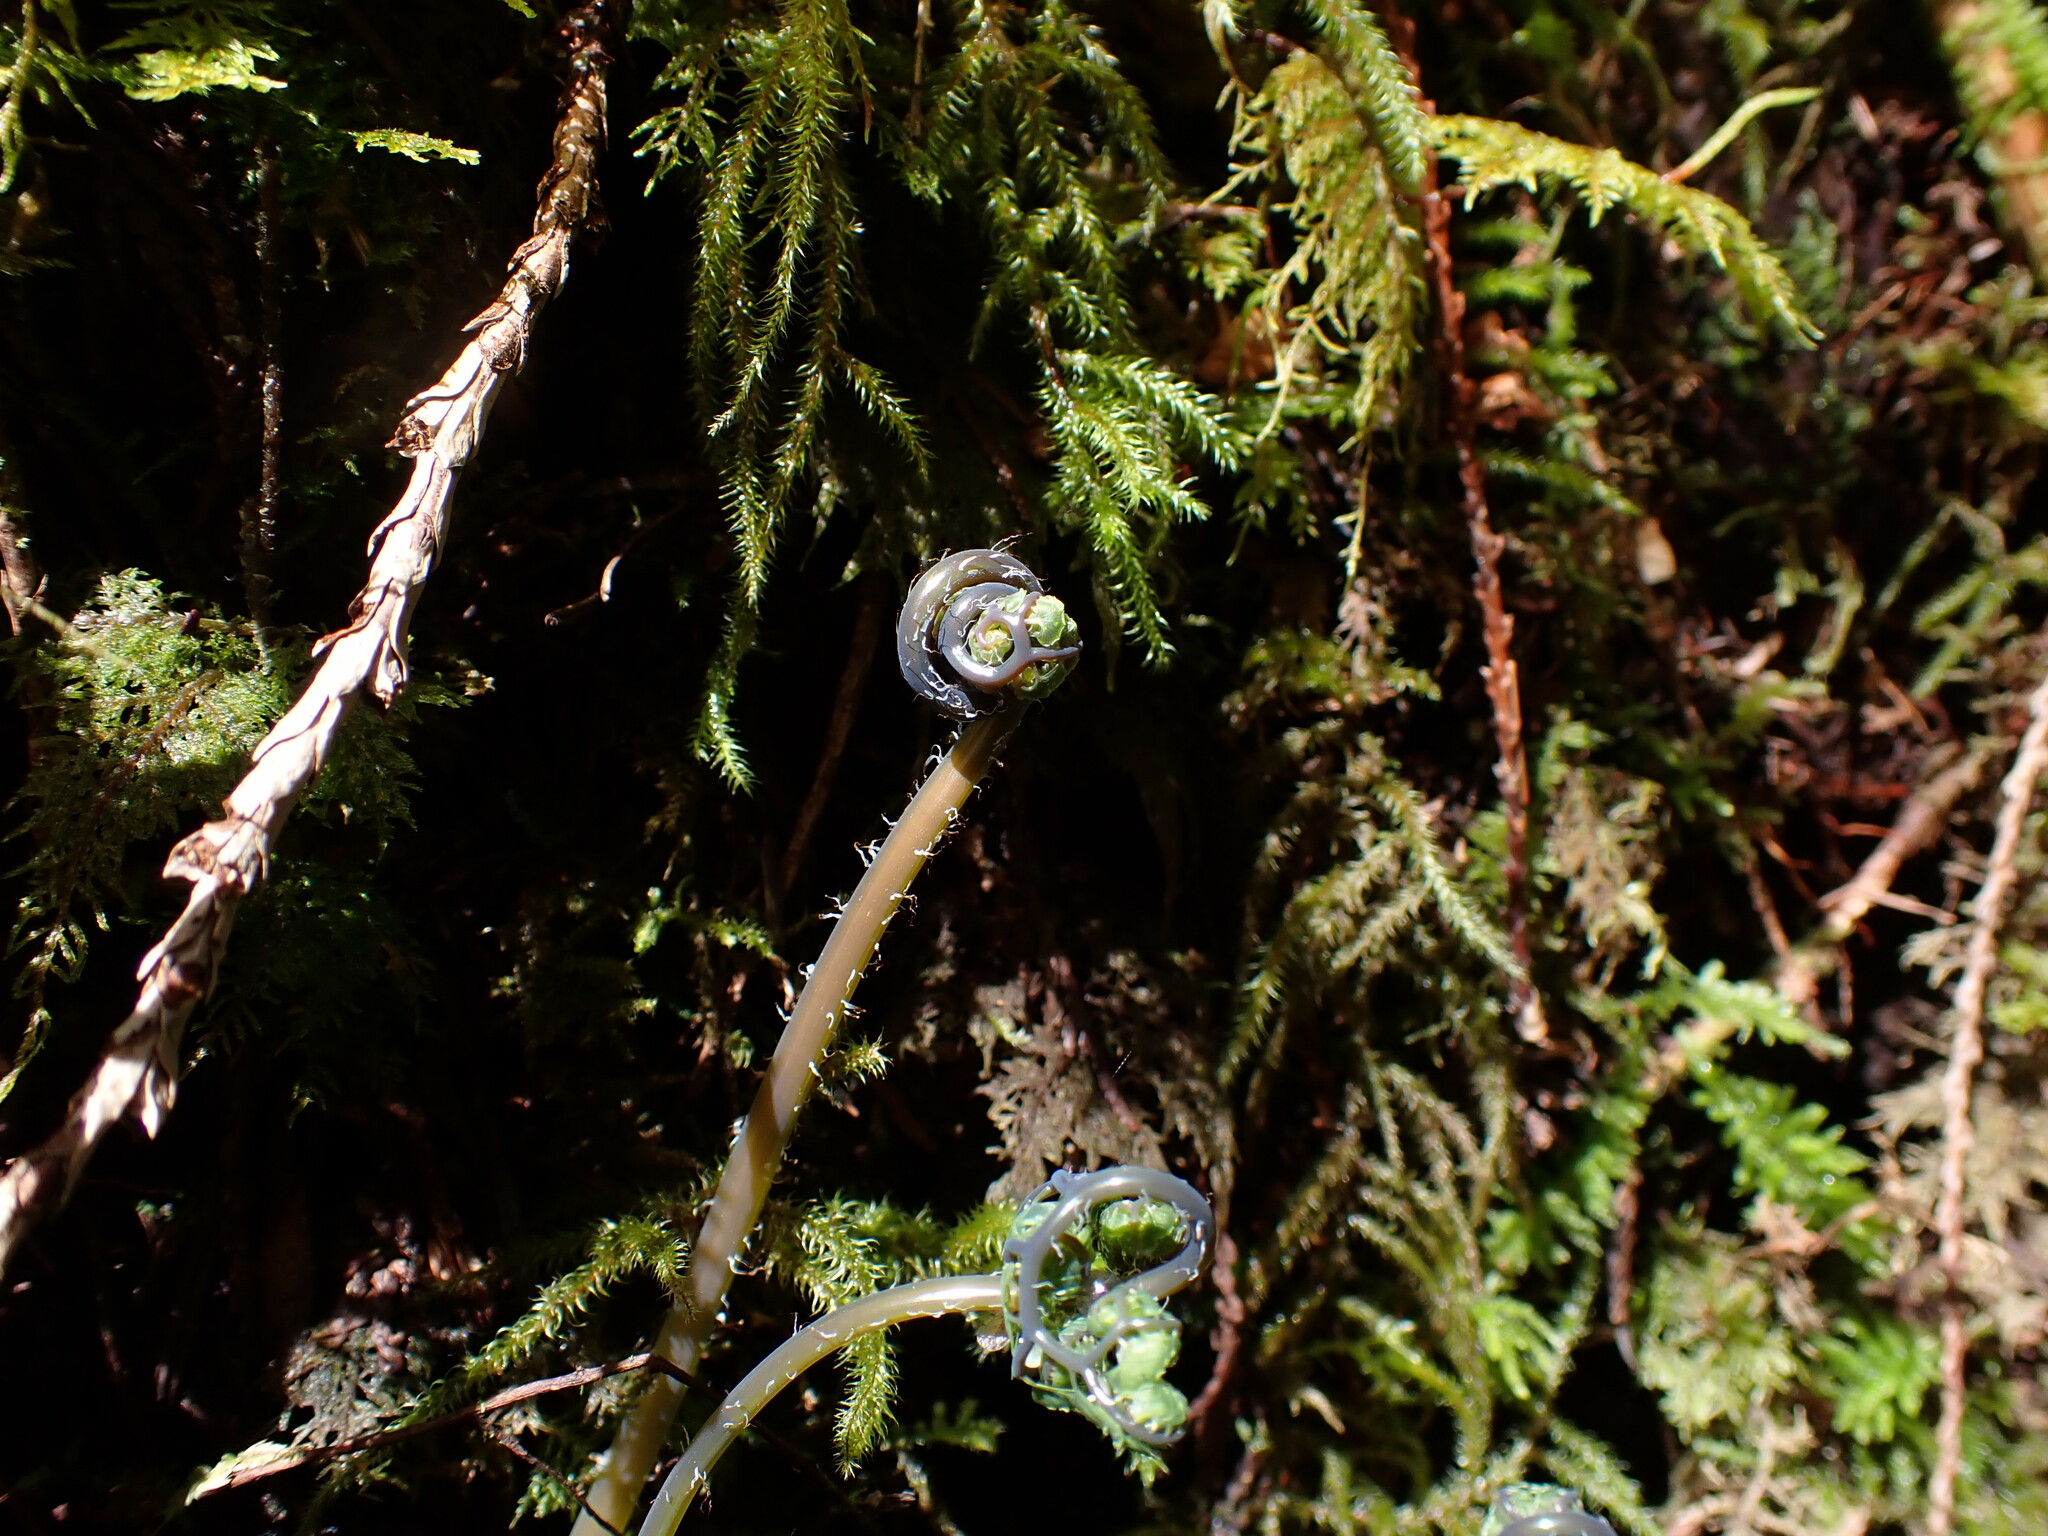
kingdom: Plantae
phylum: Tracheophyta
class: Polypodiopsida
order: Polypodiales
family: Pteridaceae
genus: Adiantum
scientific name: Adiantum aleuticum
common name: Aleutian maidenhair fern
